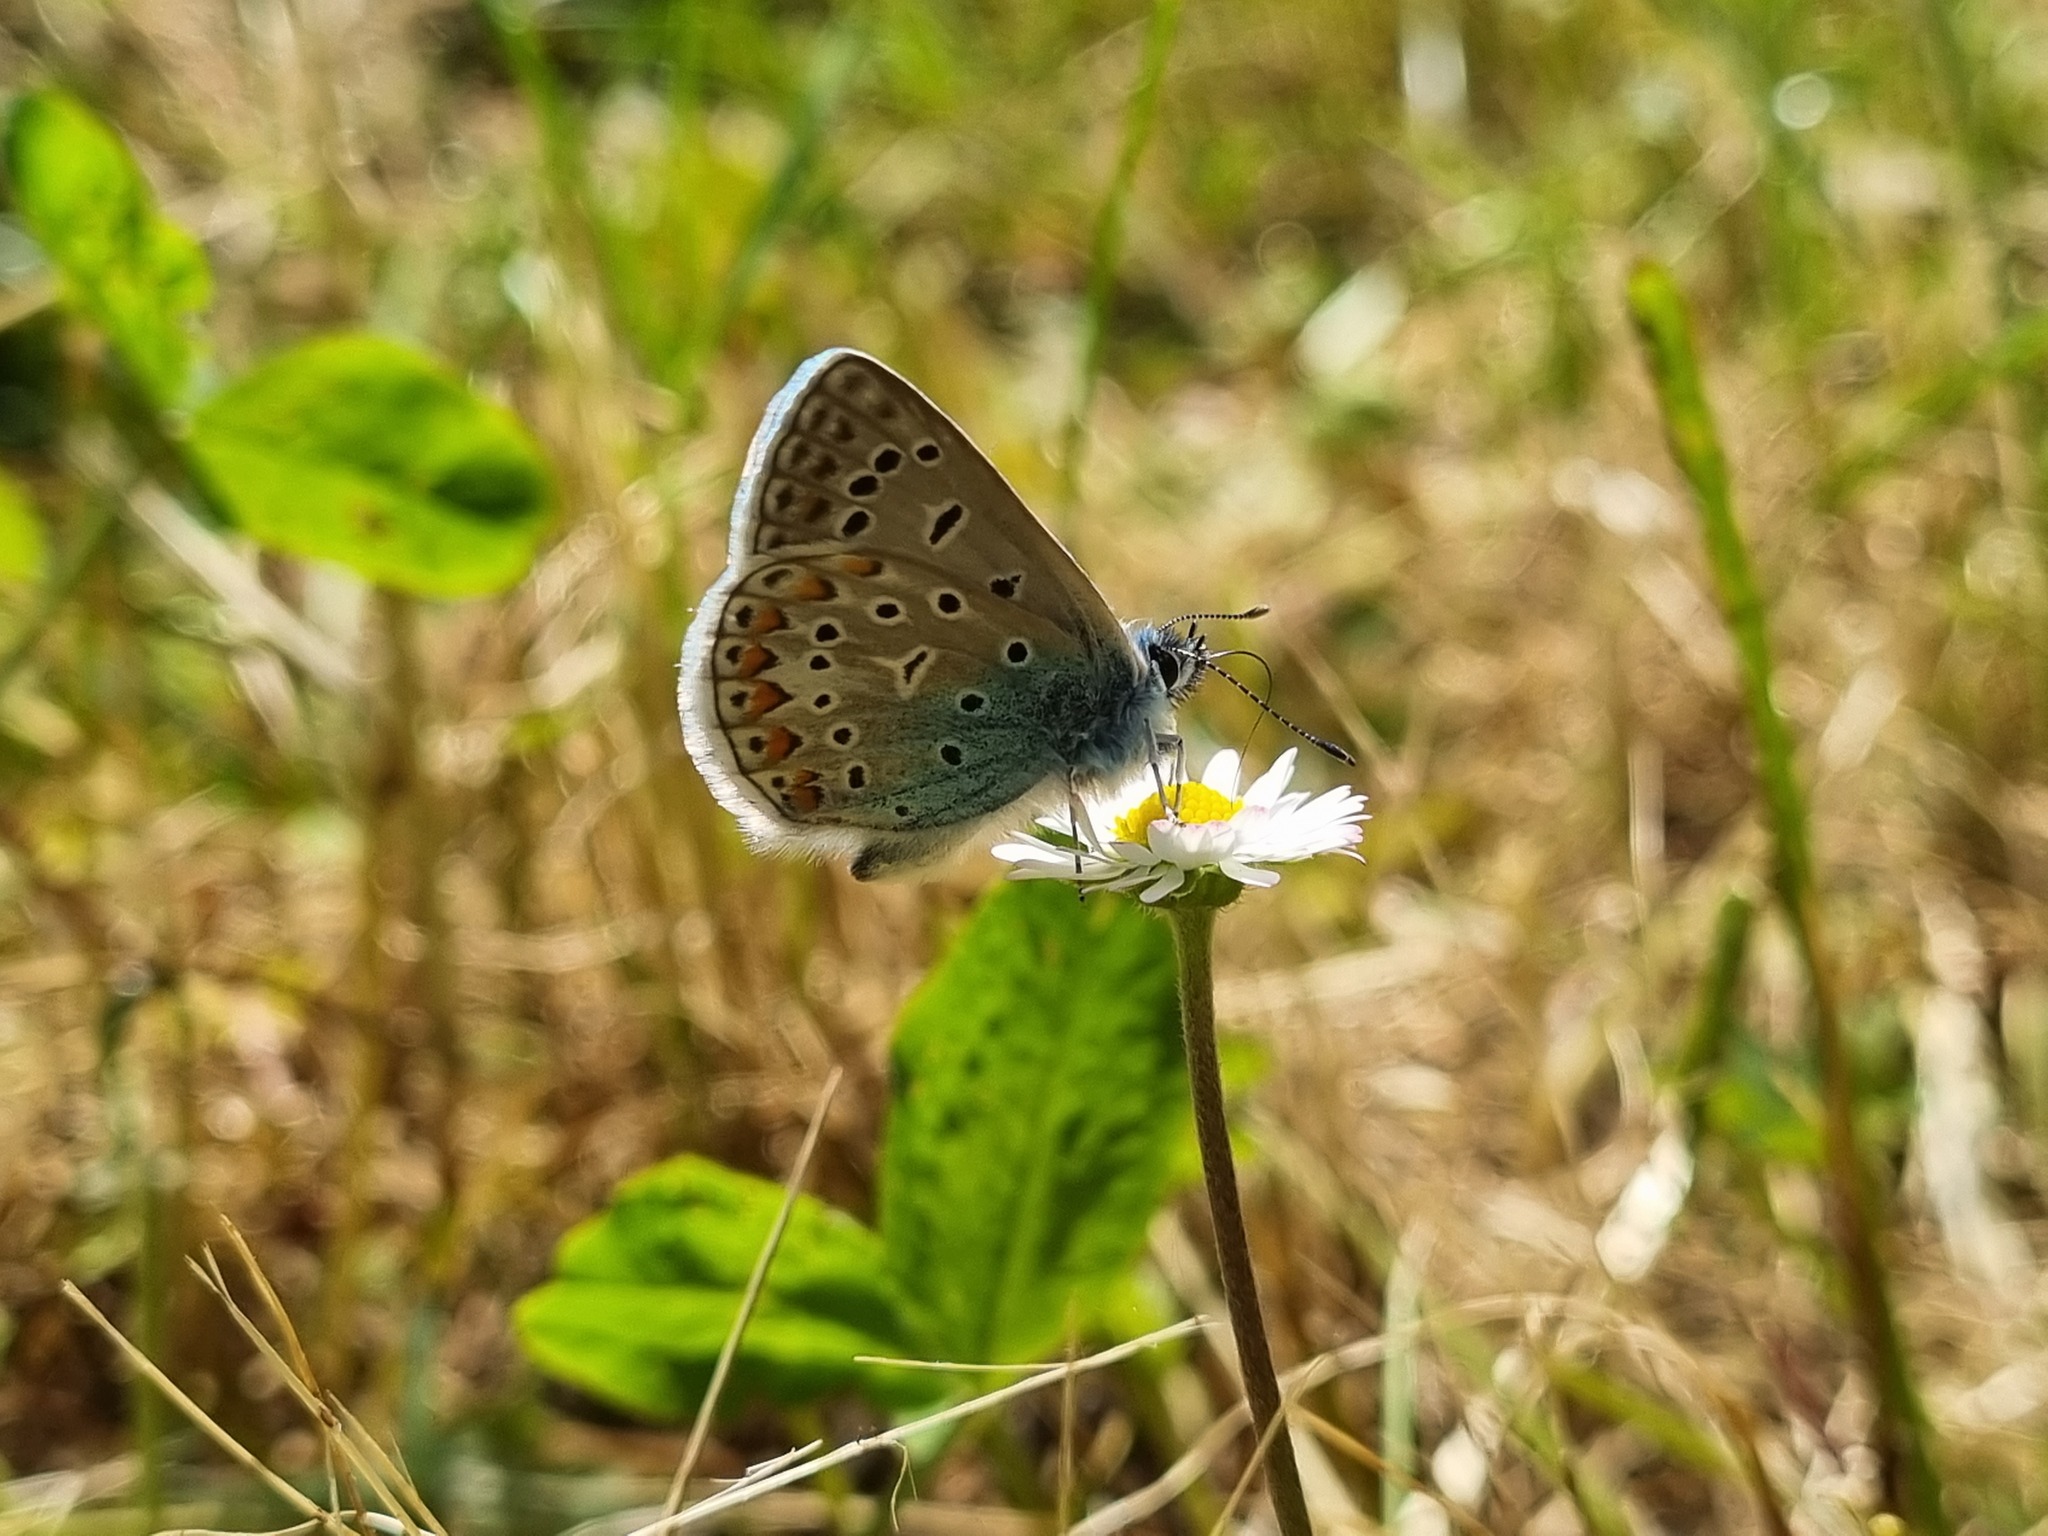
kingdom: Animalia
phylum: Arthropoda
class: Insecta
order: Lepidoptera
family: Lycaenidae
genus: Polyommatus
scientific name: Polyommatus icarus
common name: Common blue
